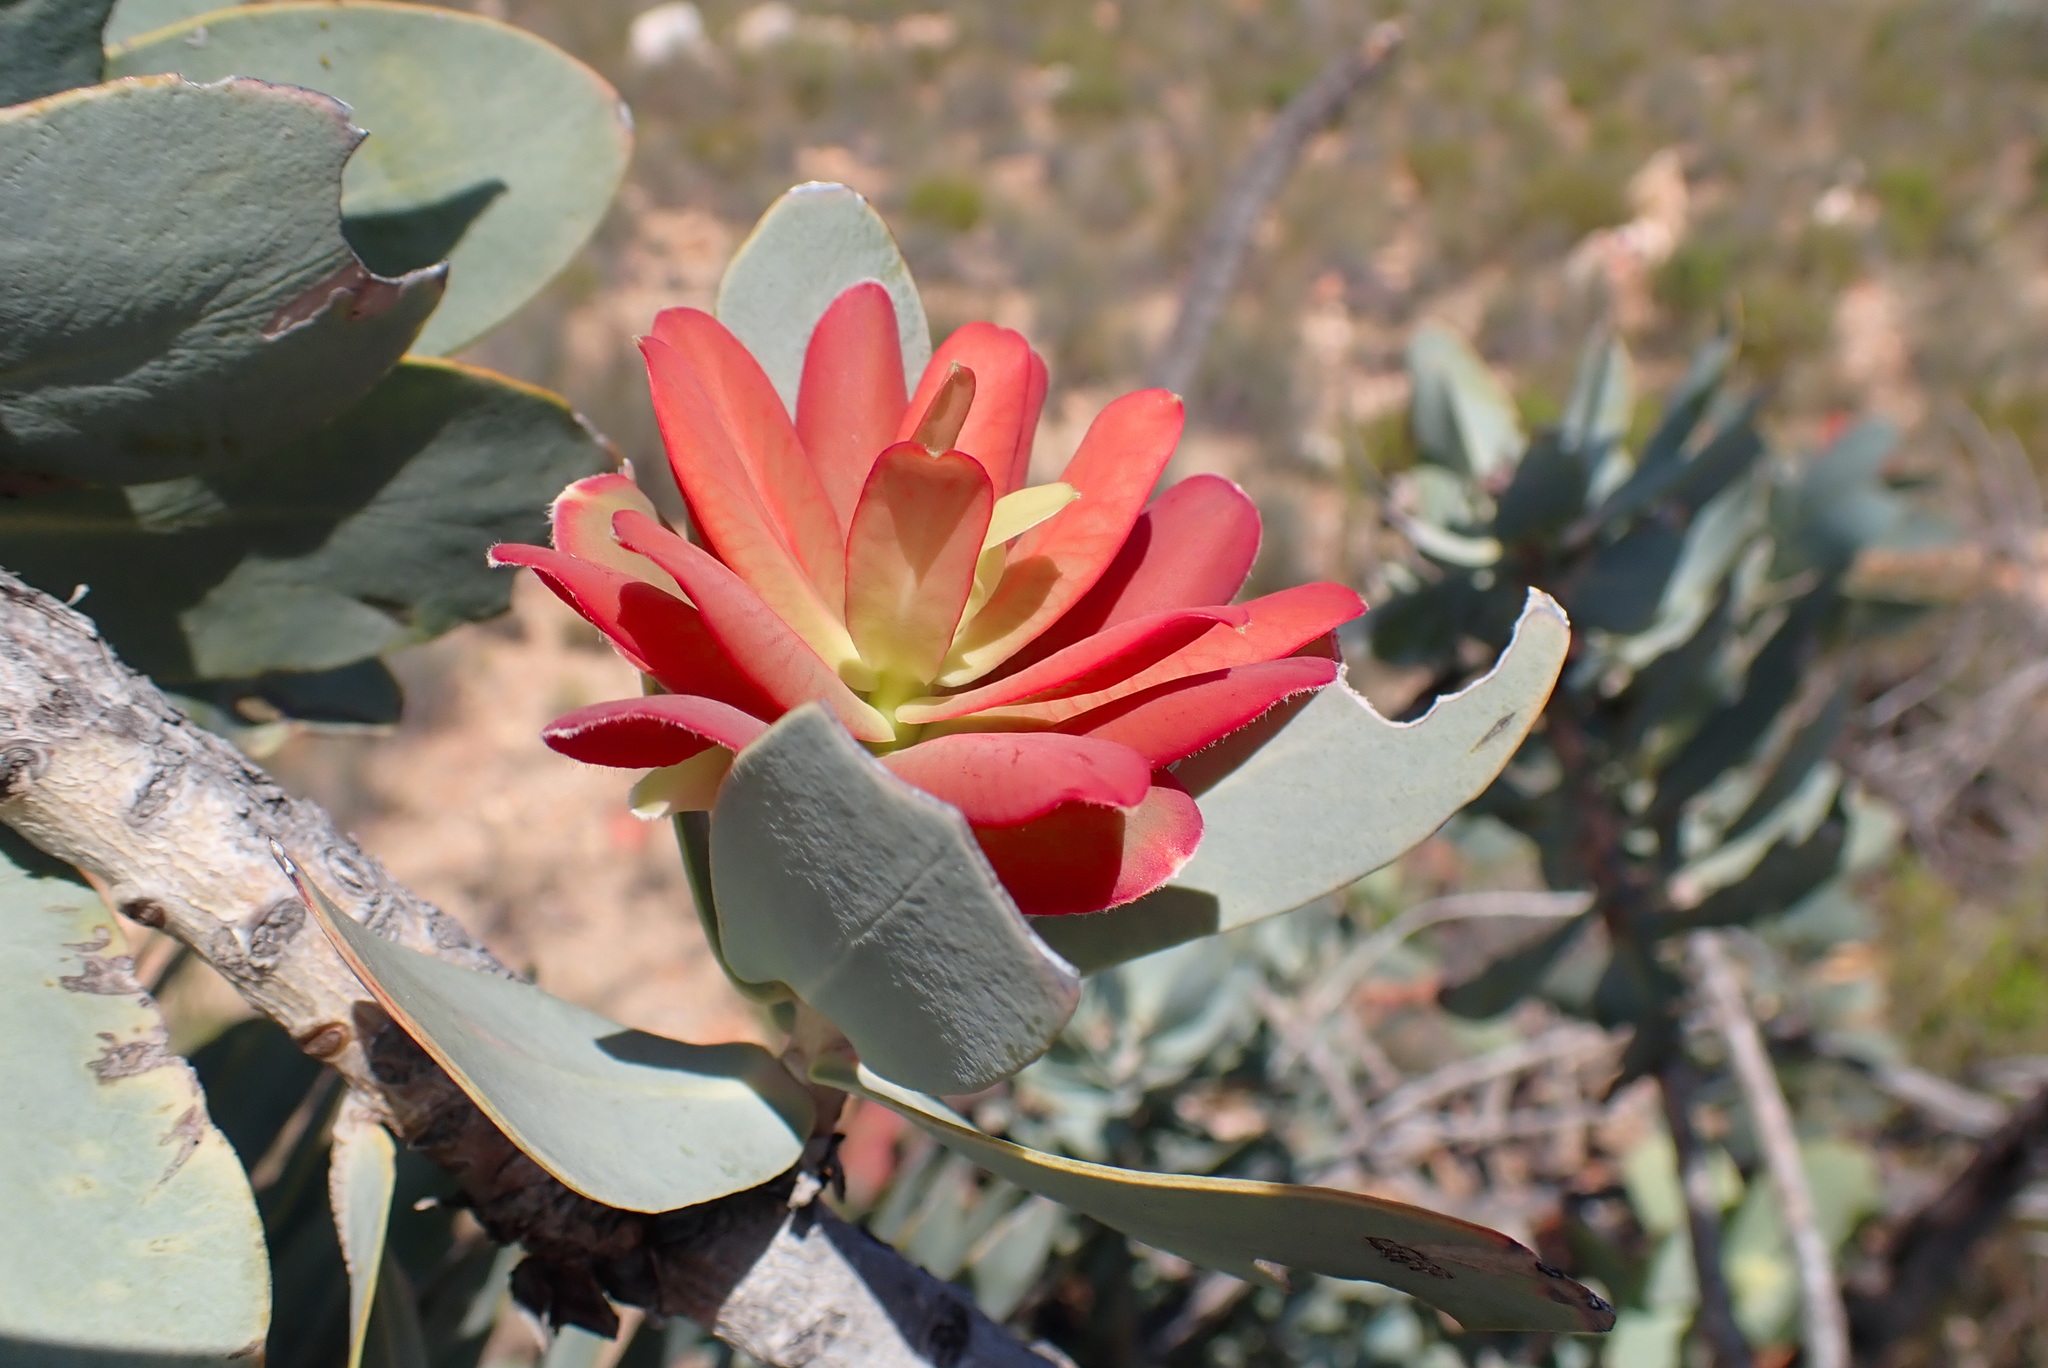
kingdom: Plantae
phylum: Tracheophyta
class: Magnoliopsida
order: Proteales
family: Proteaceae
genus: Protea
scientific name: Protea nitida
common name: Tree protea
